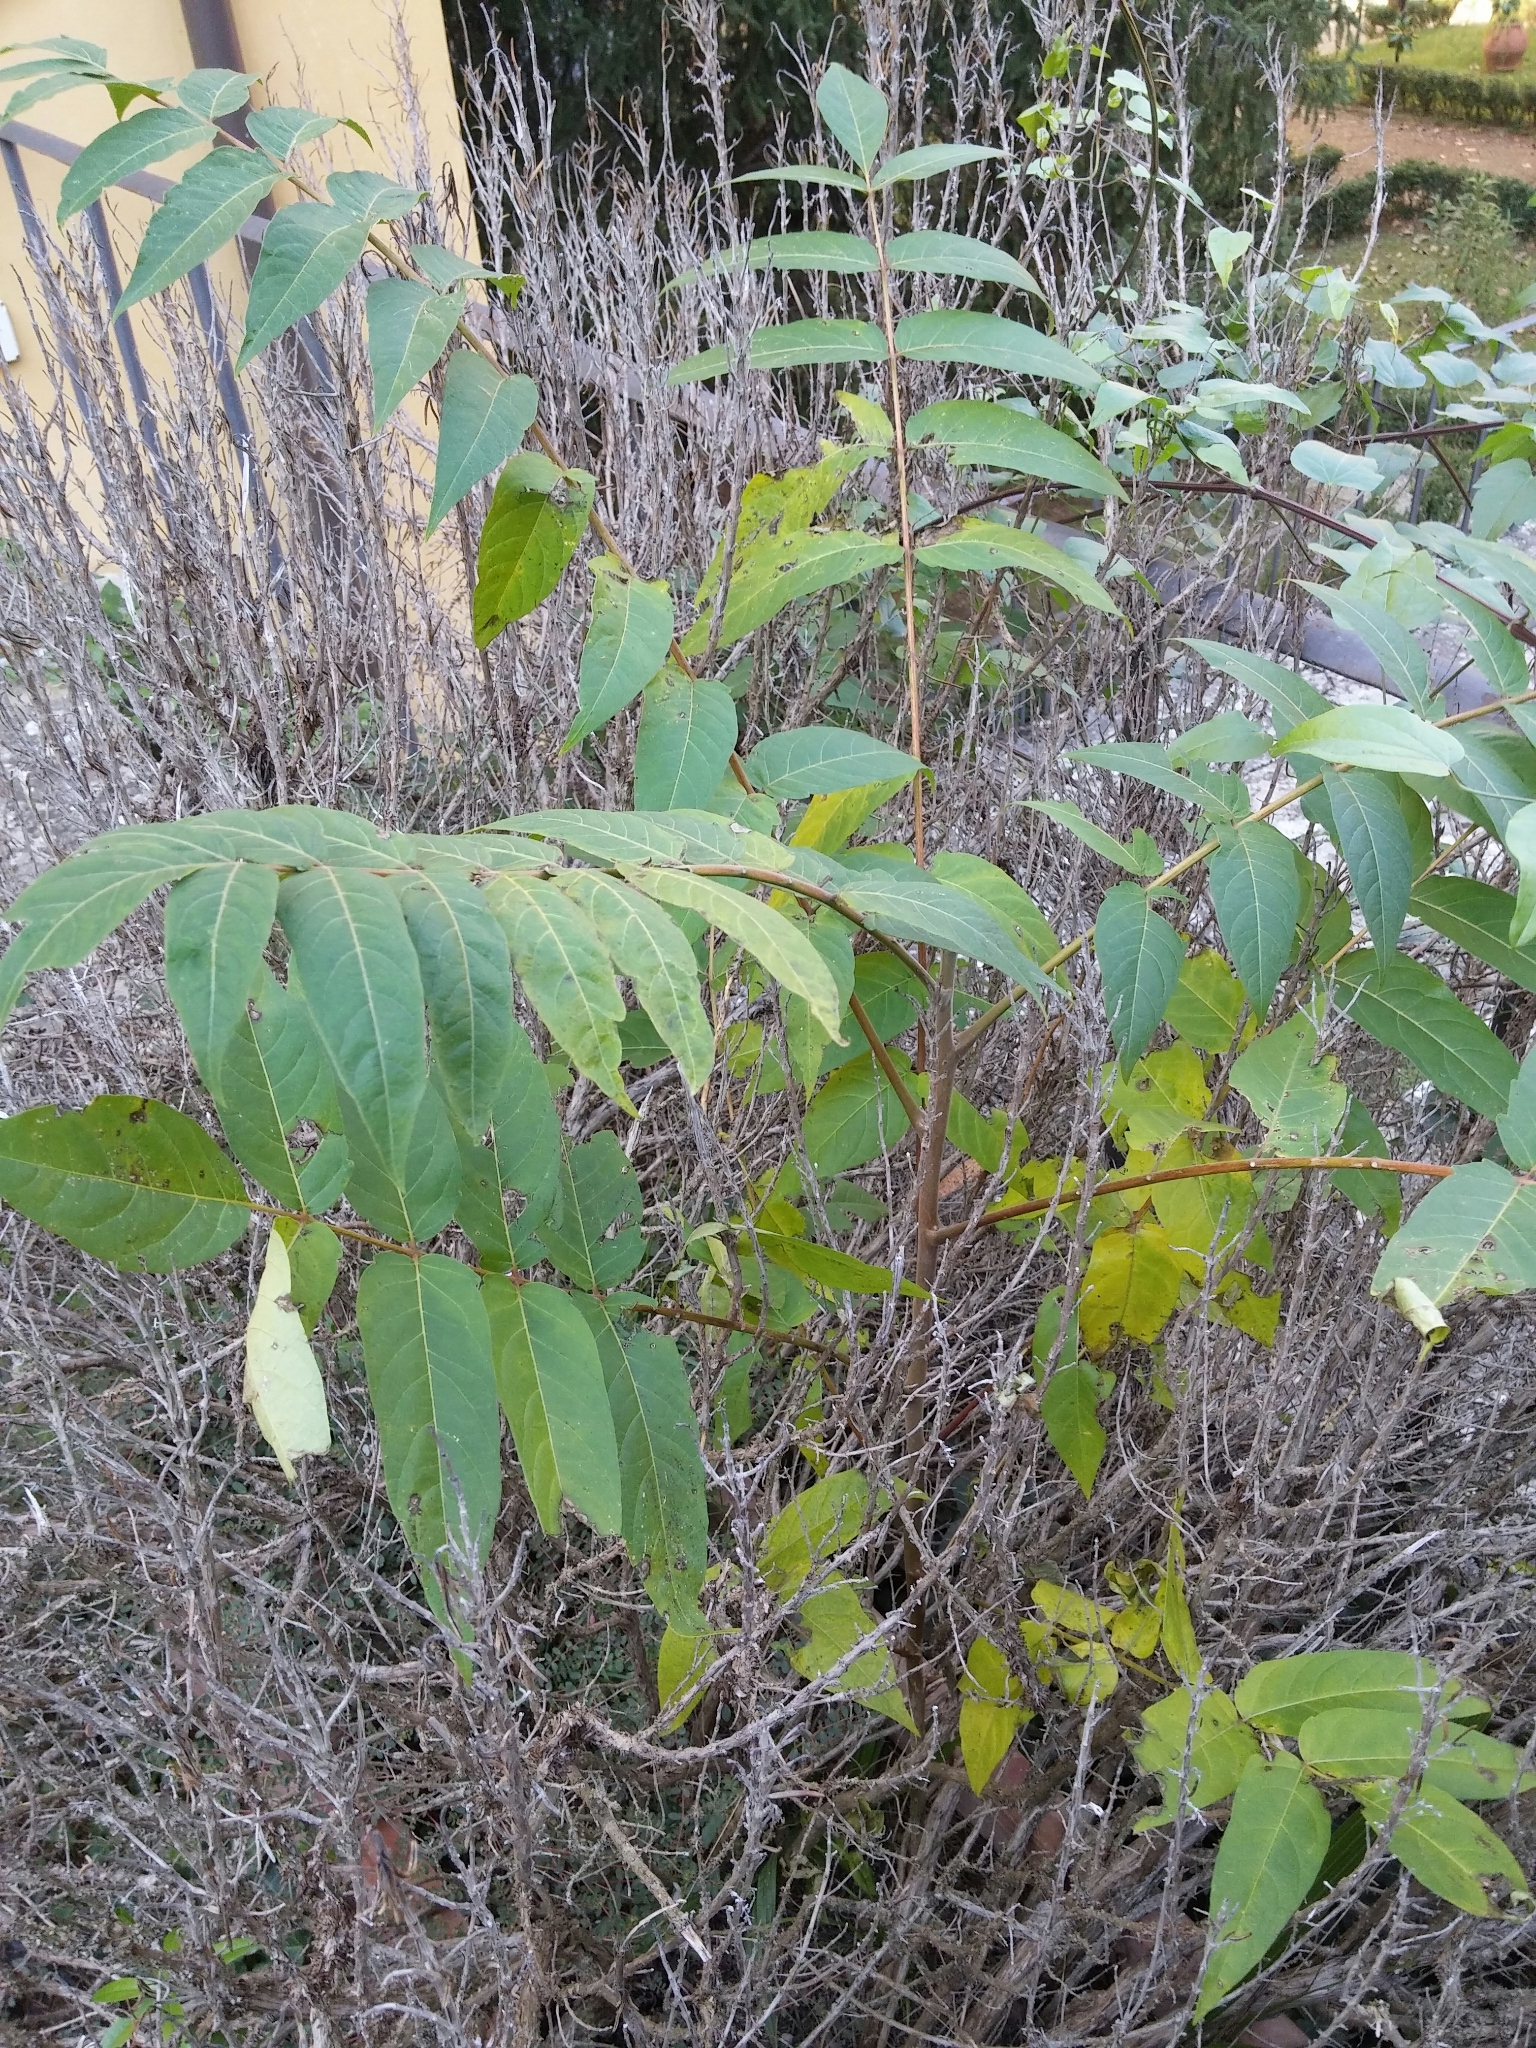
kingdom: Plantae
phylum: Tracheophyta
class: Magnoliopsida
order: Sapindales
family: Simaroubaceae
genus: Ailanthus
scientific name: Ailanthus altissima
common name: Tree-of-heaven
